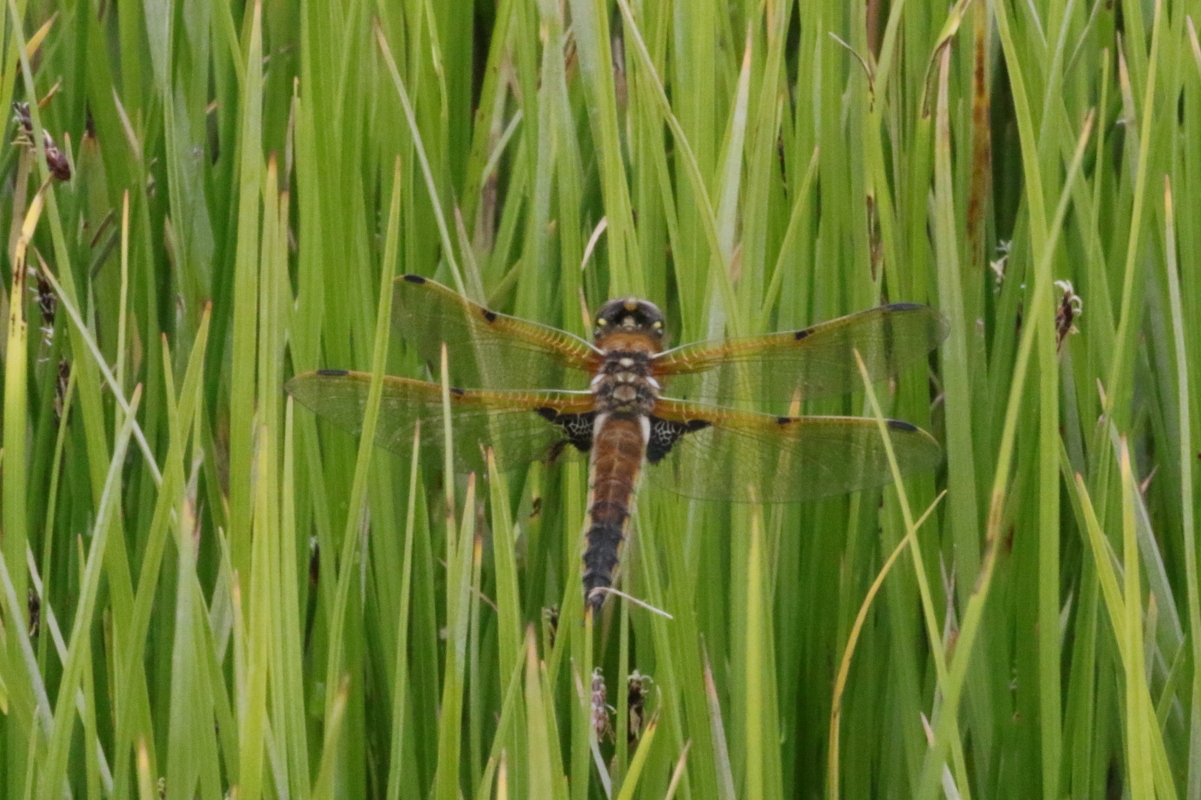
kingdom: Animalia
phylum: Arthropoda
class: Insecta
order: Odonata
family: Libellulidae
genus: Libellula
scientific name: Libellula quadrimaculata
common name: Four-spotted chaser
